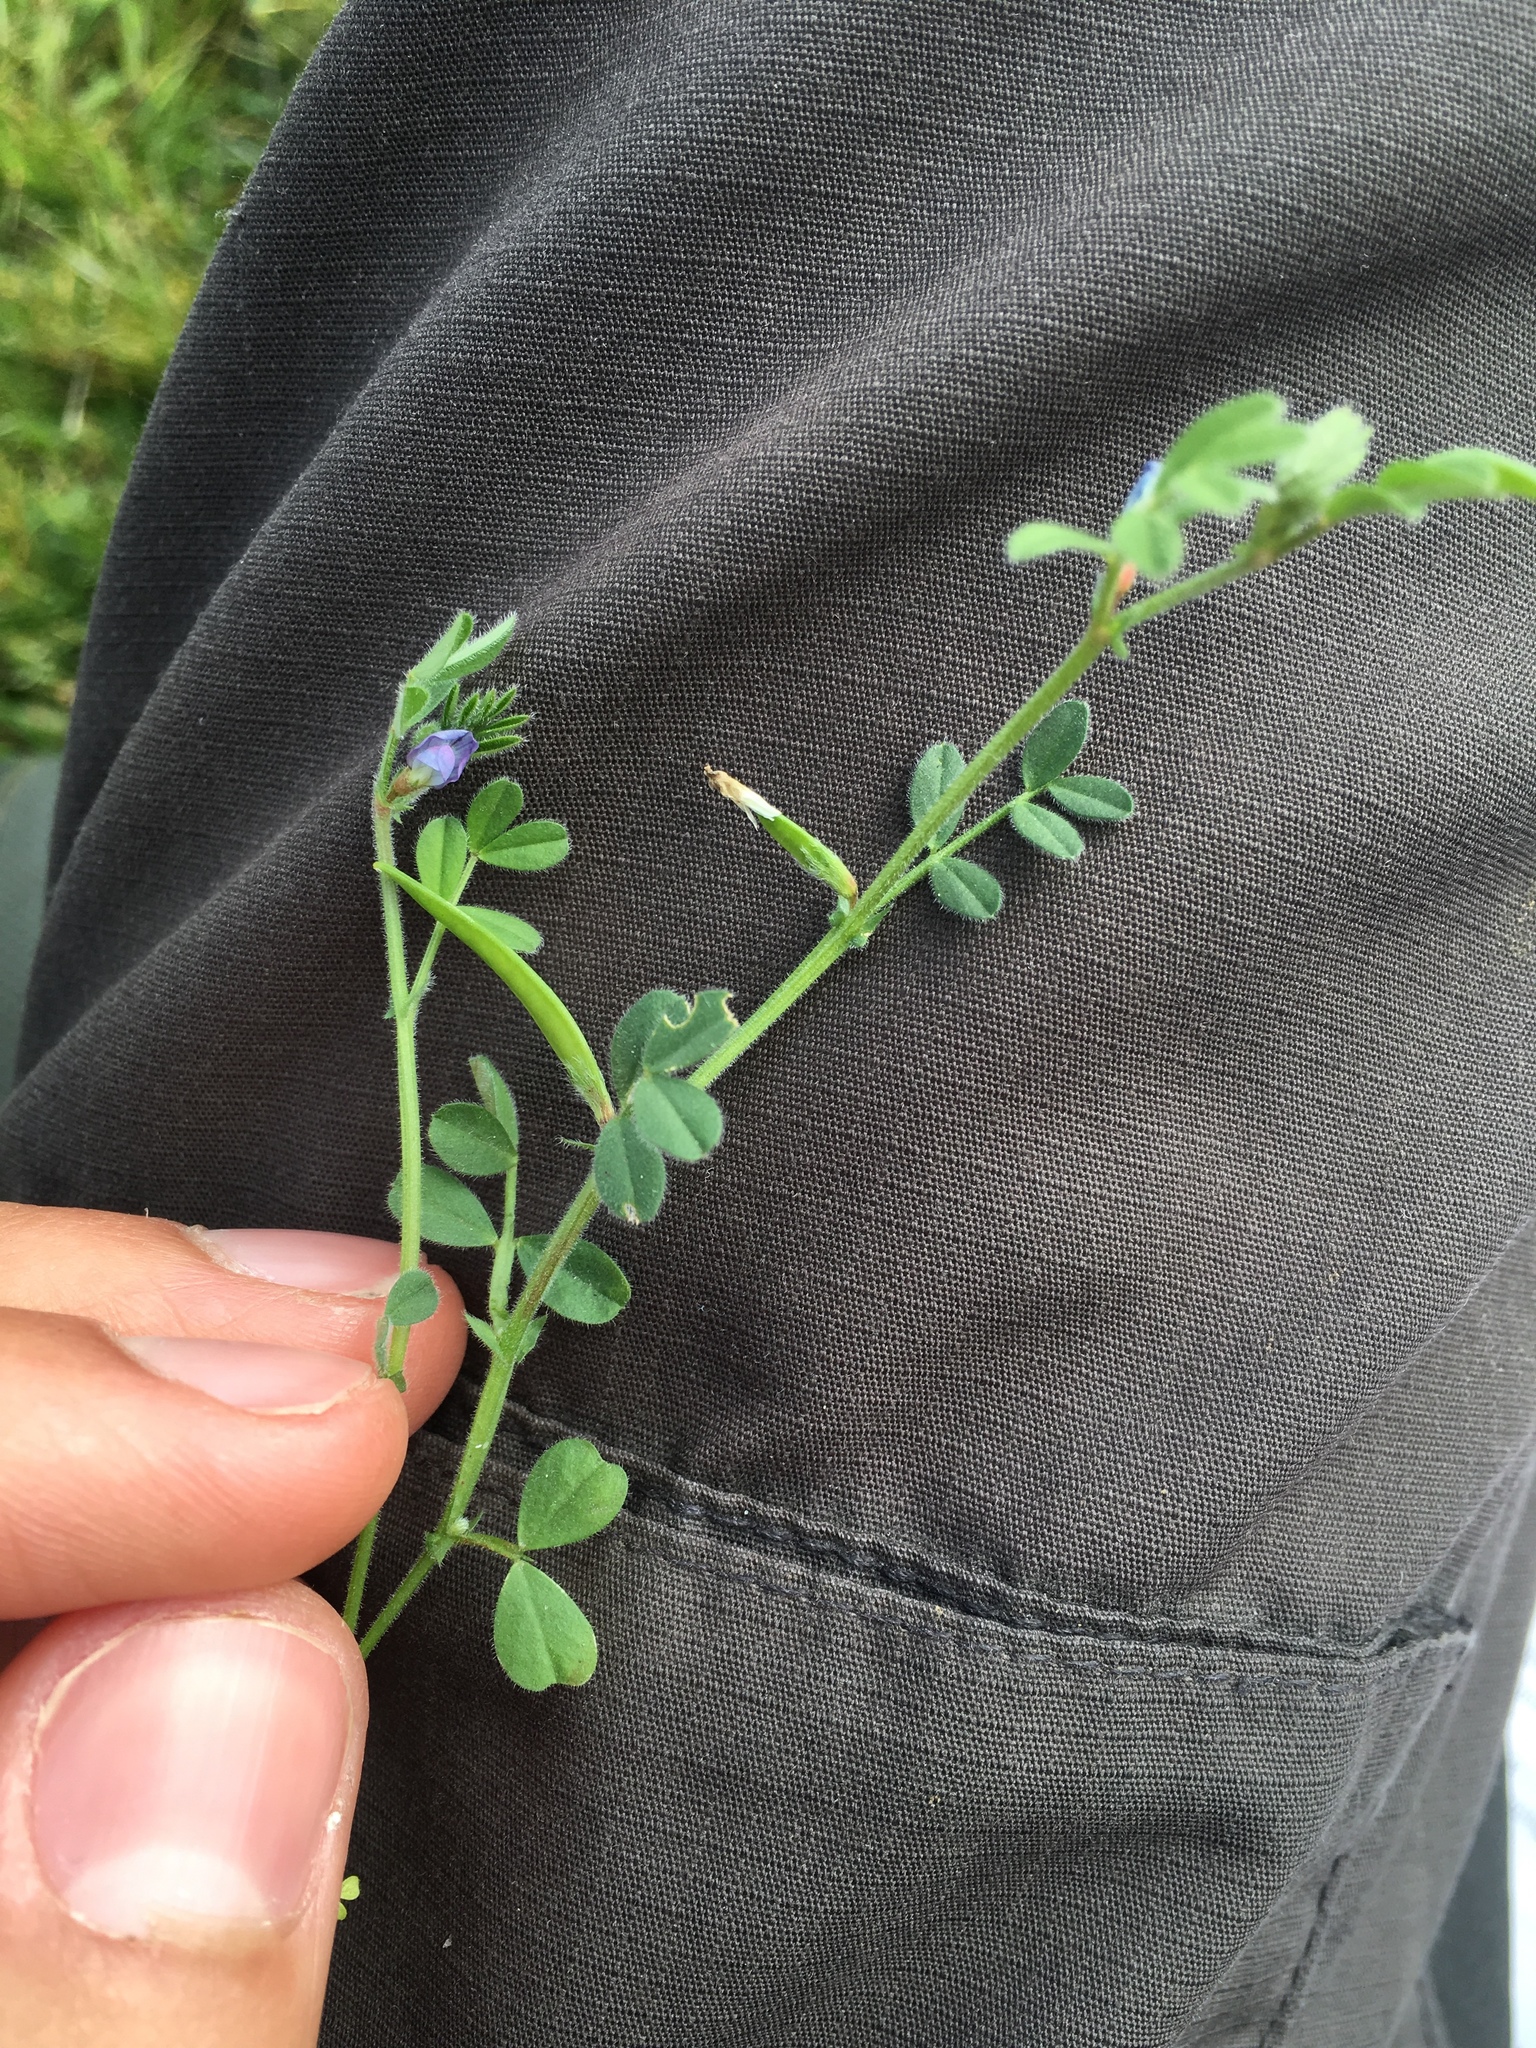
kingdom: Plantae
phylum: Tracheophyta
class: Magnoliopsida
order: Fabales
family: Fabaceae
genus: Vicia
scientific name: Vicia lathyroides
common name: Spring vetch
